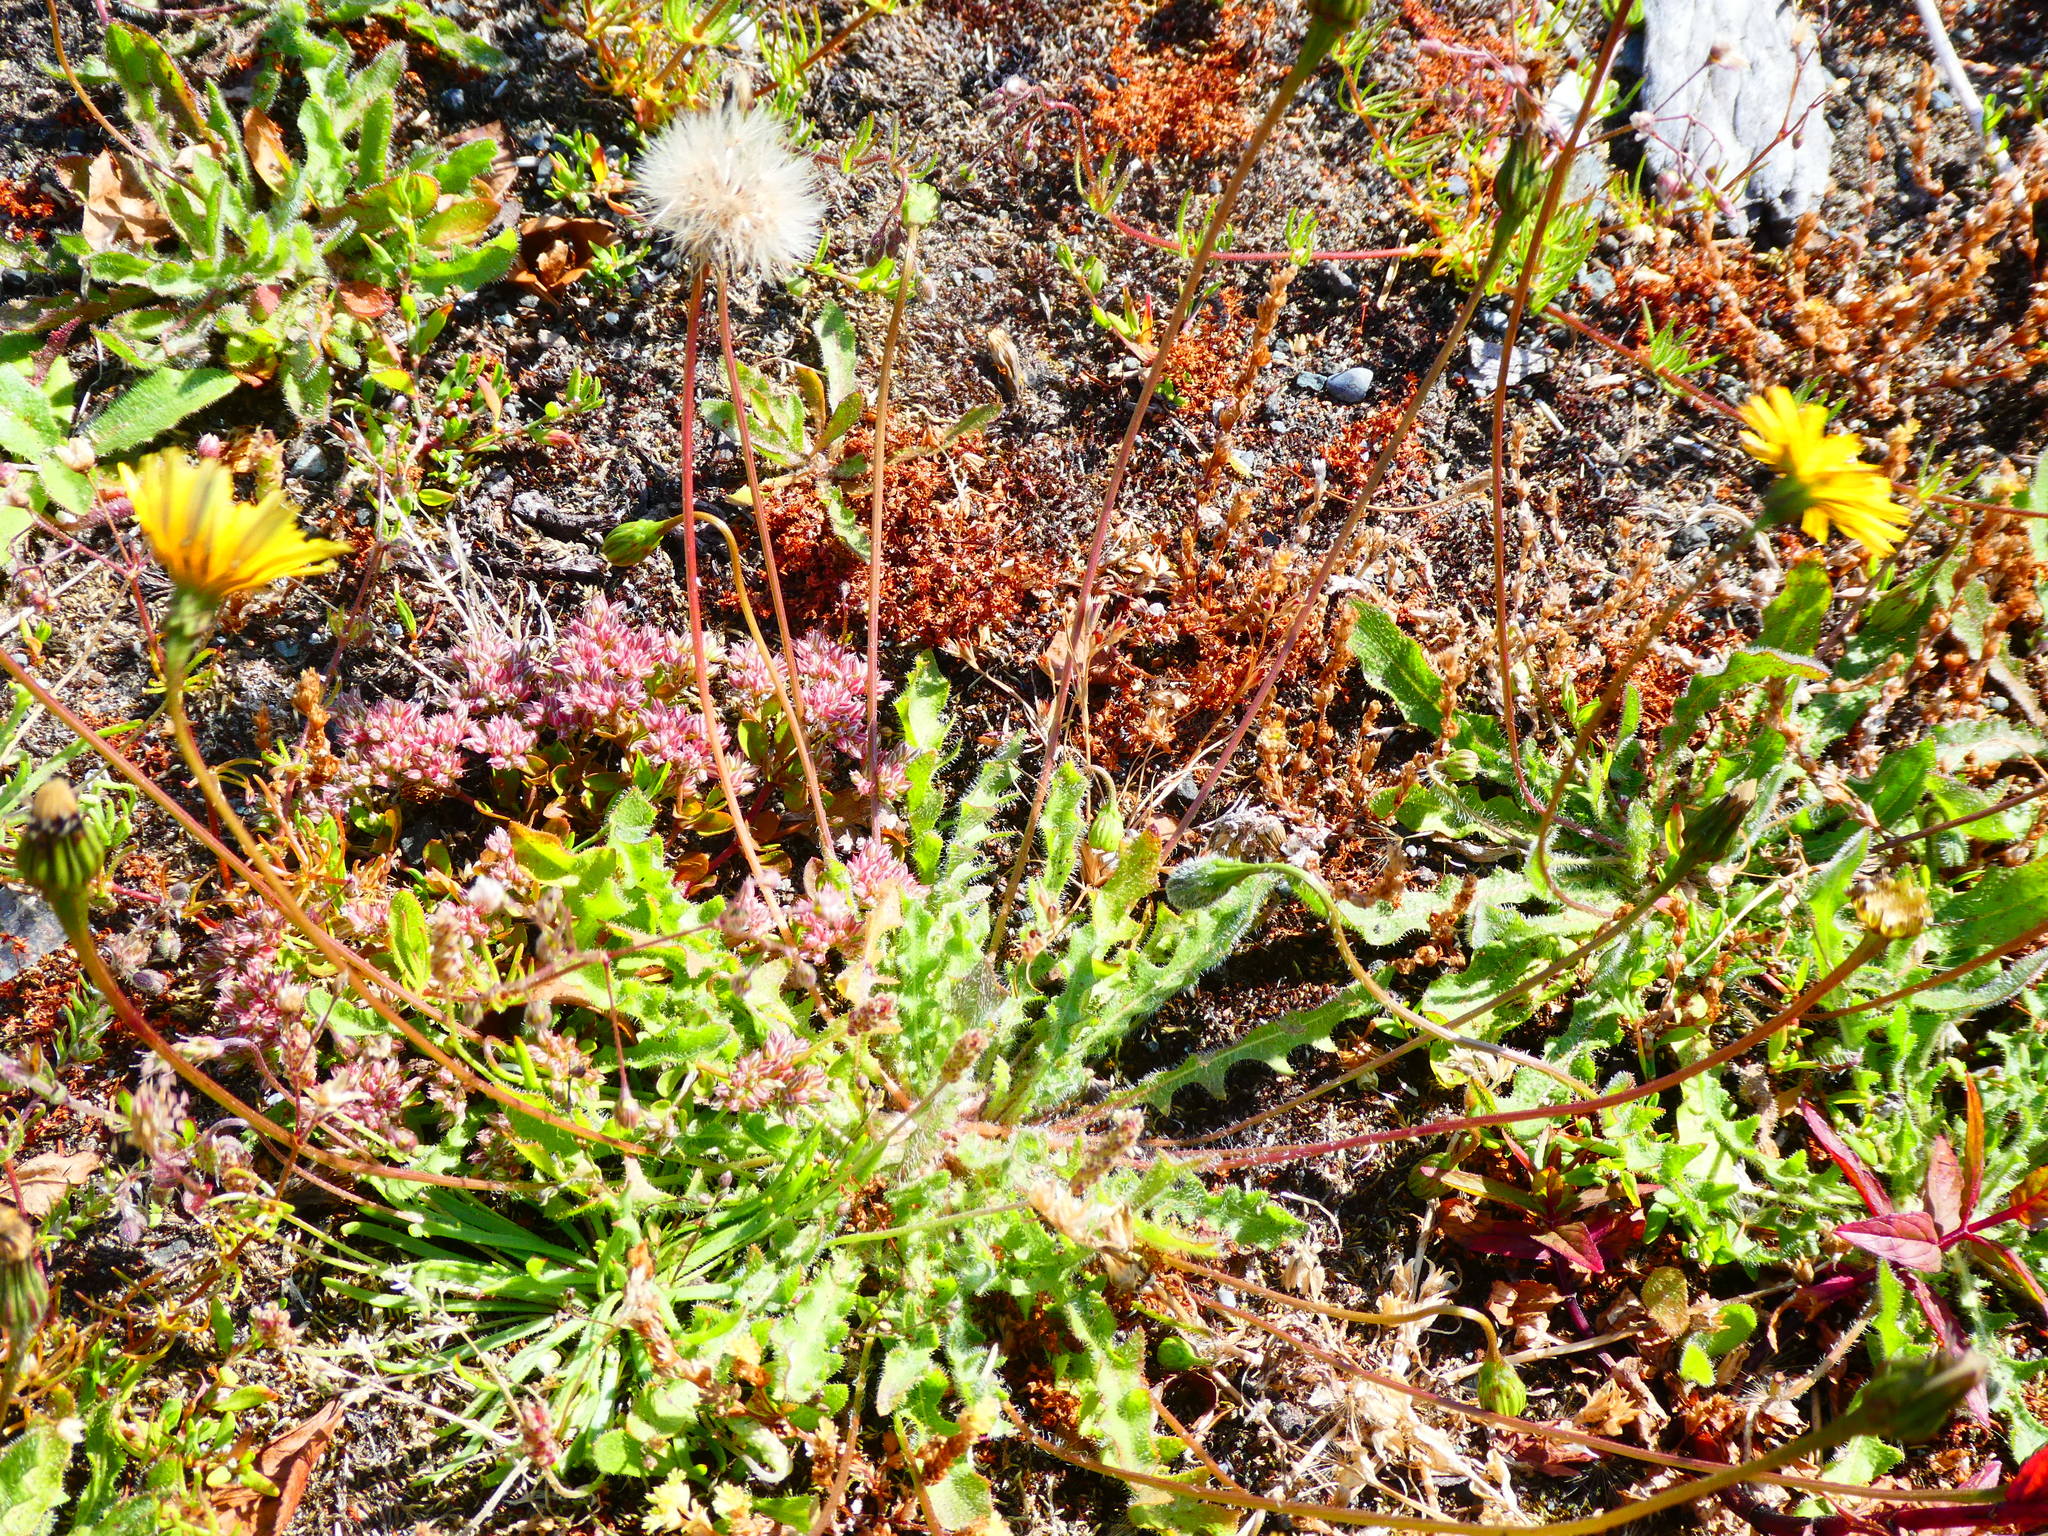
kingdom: Plantae
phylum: Tracheophyta
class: Magnoliopsida
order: Asterales
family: Asteraceae
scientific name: Asteraceae
